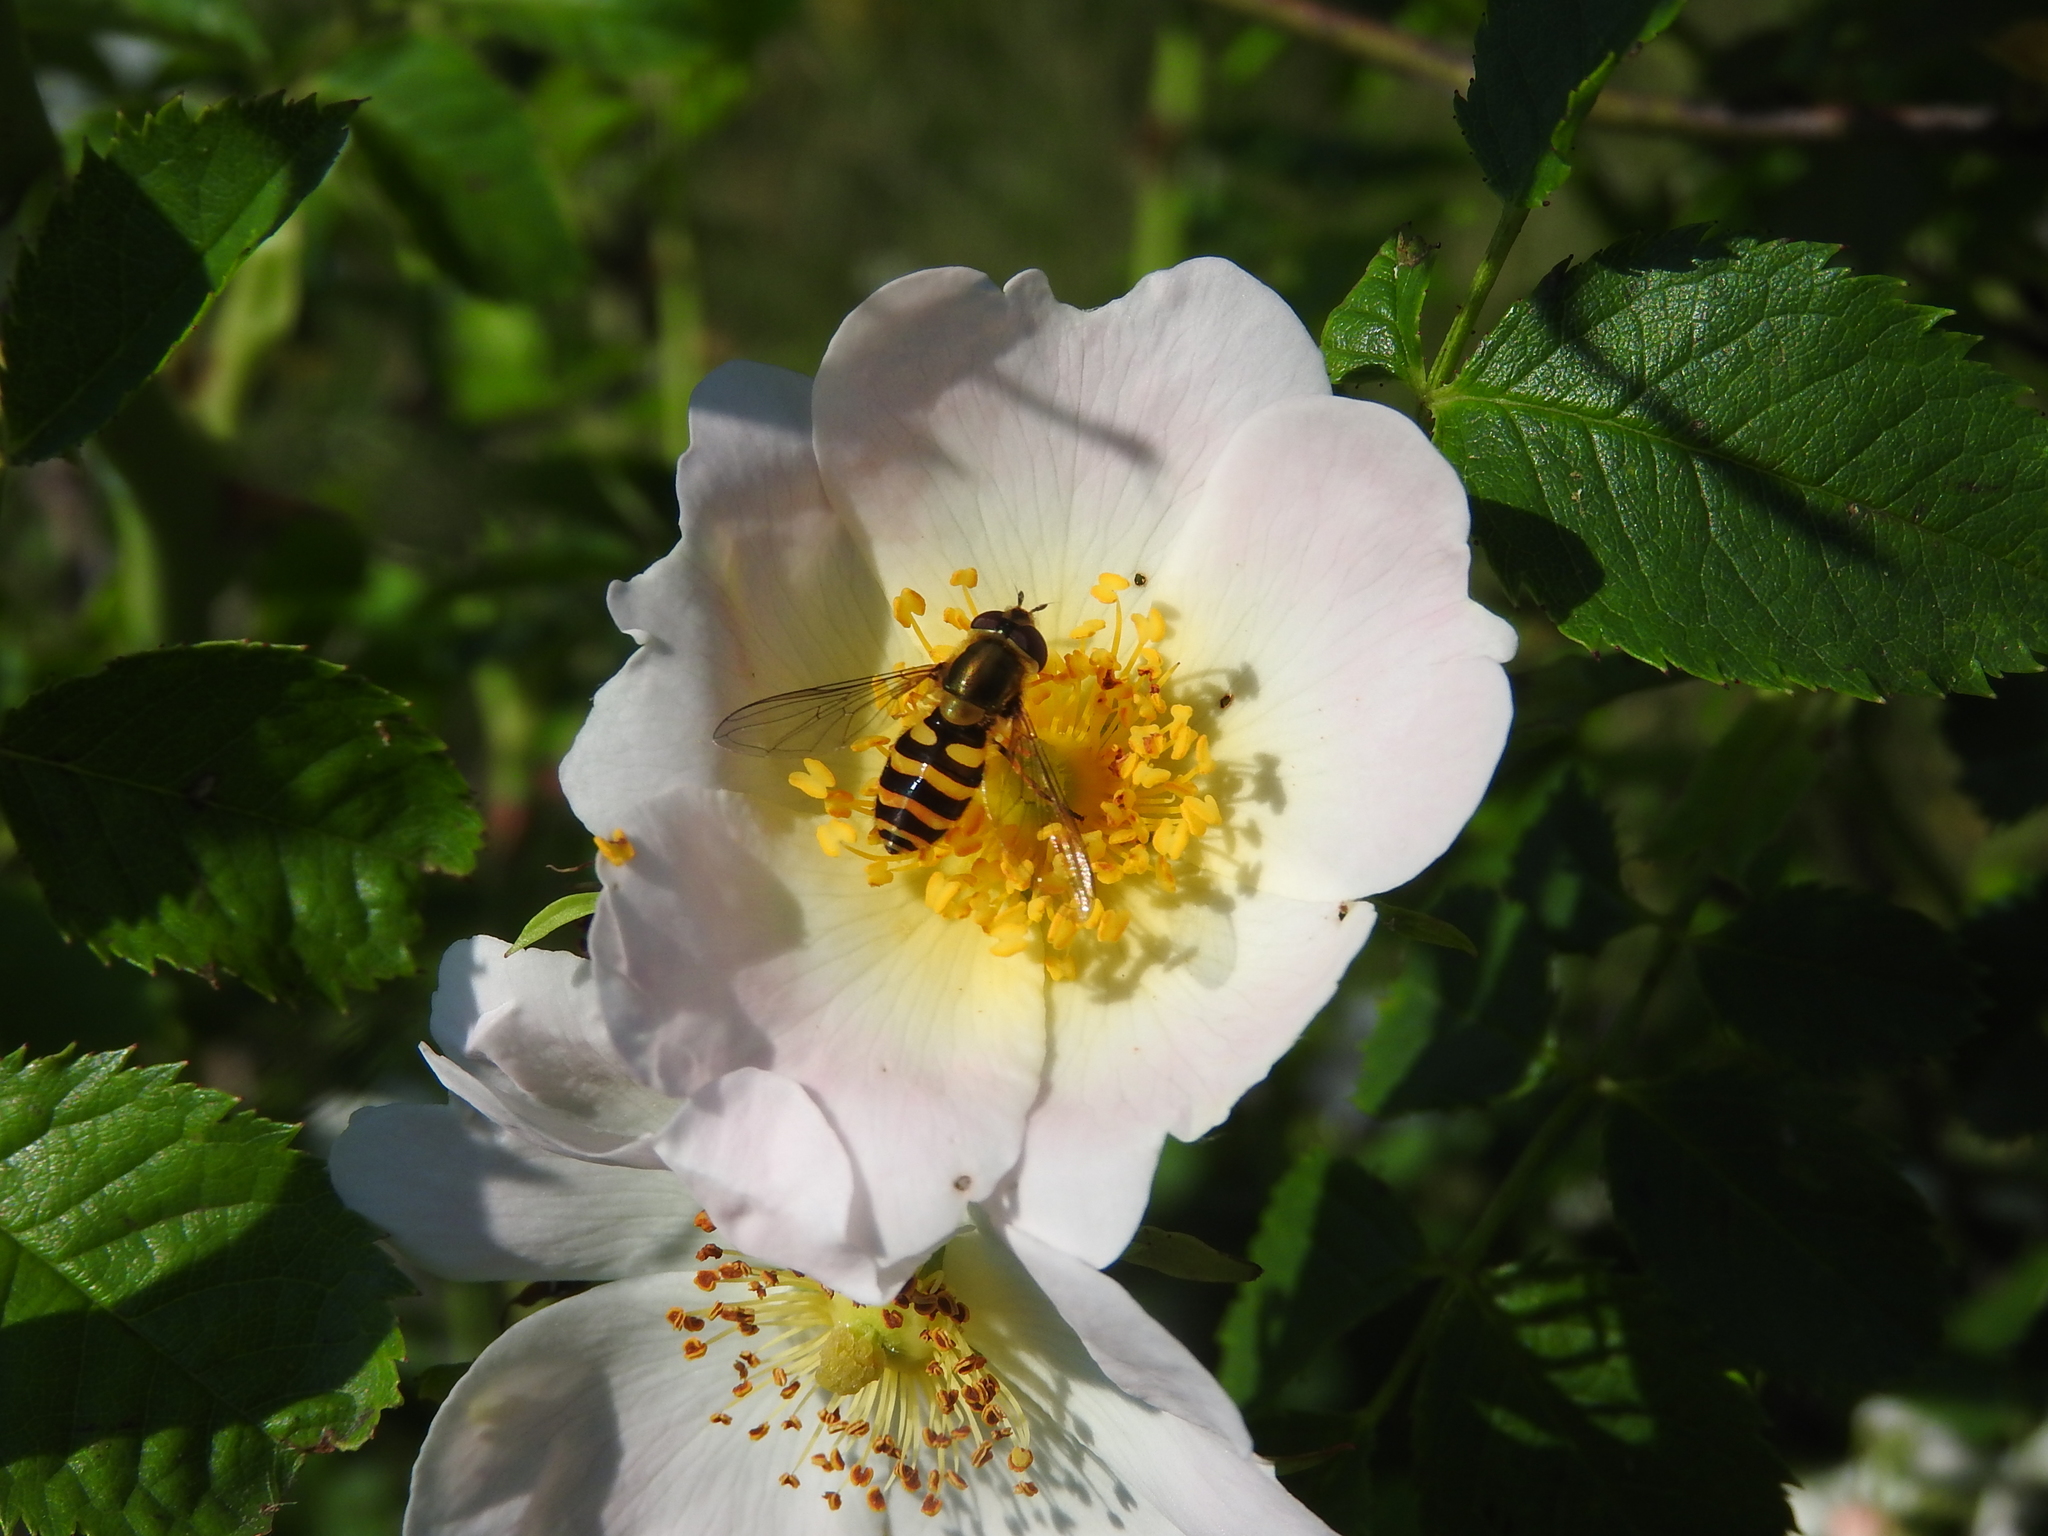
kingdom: Animalia
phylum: Arthropoda
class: Insecta
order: Diptera
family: Syrphidae
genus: Syrphus
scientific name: Syrphus
